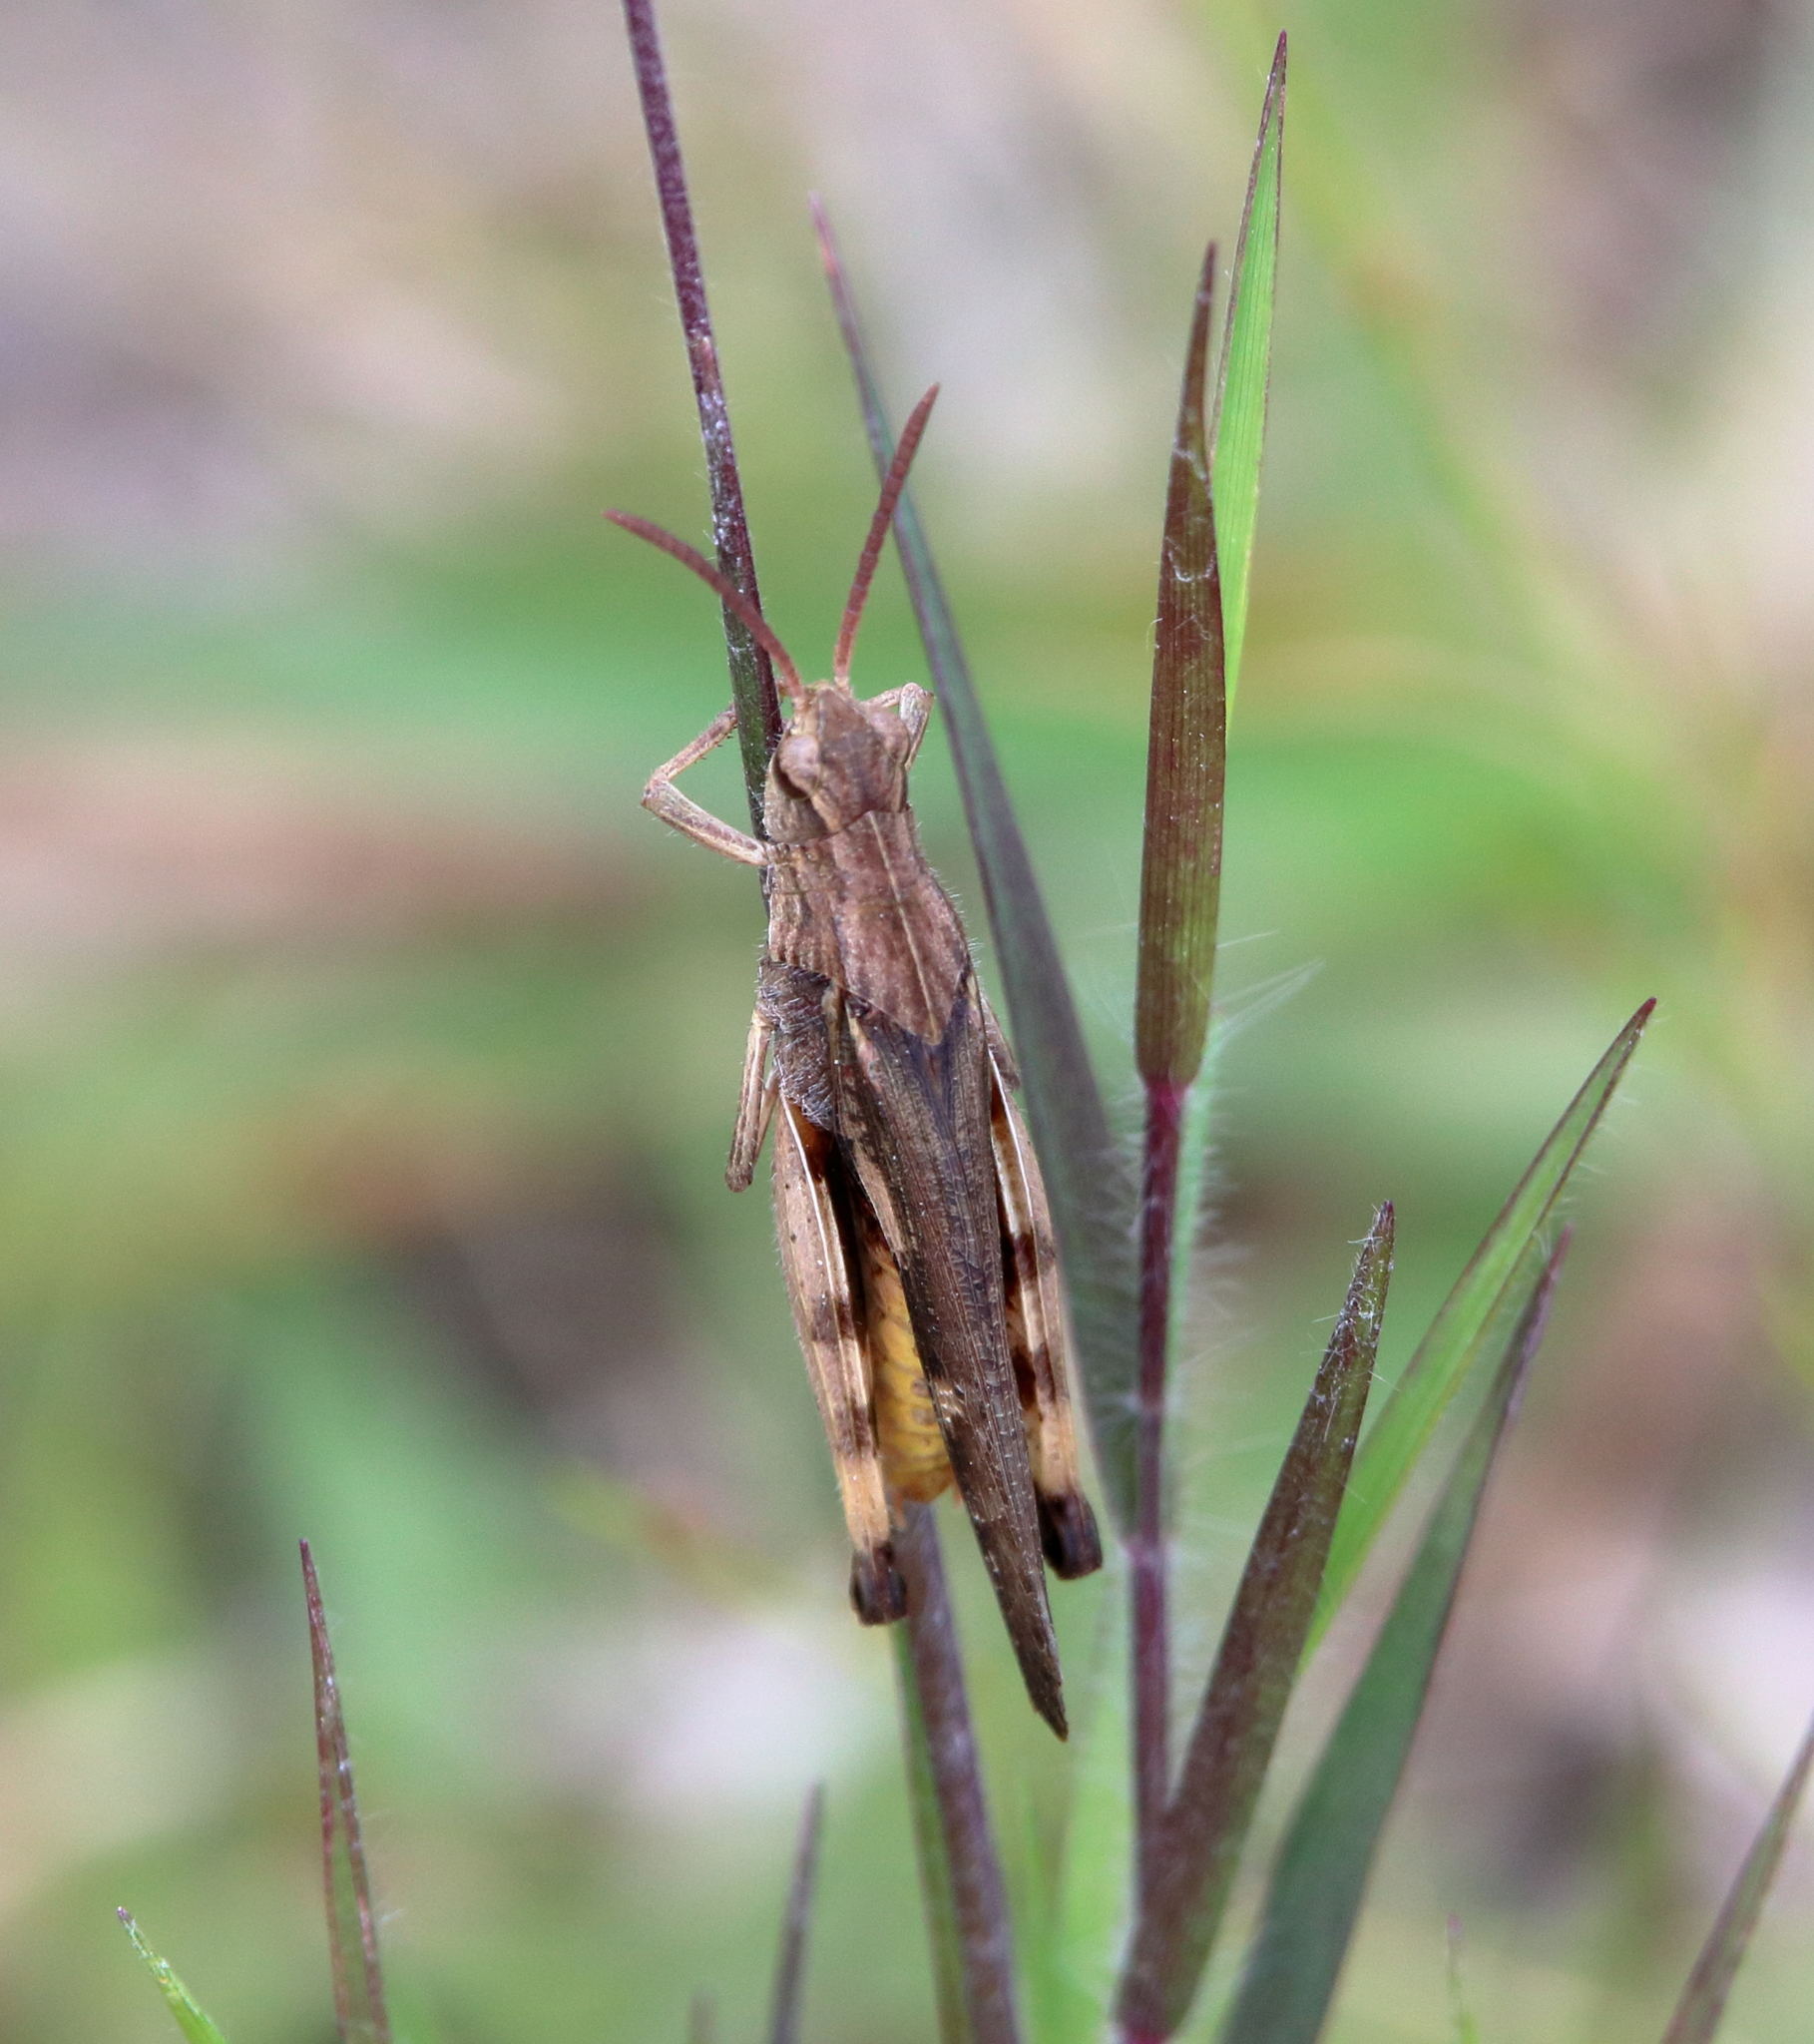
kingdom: Animalia
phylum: Arthropoda
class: Insecta
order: Orthoptera
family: Acrididae
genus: Chortophaga
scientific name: Chortophaga viridifasciata
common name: Green-striped grasshopper
